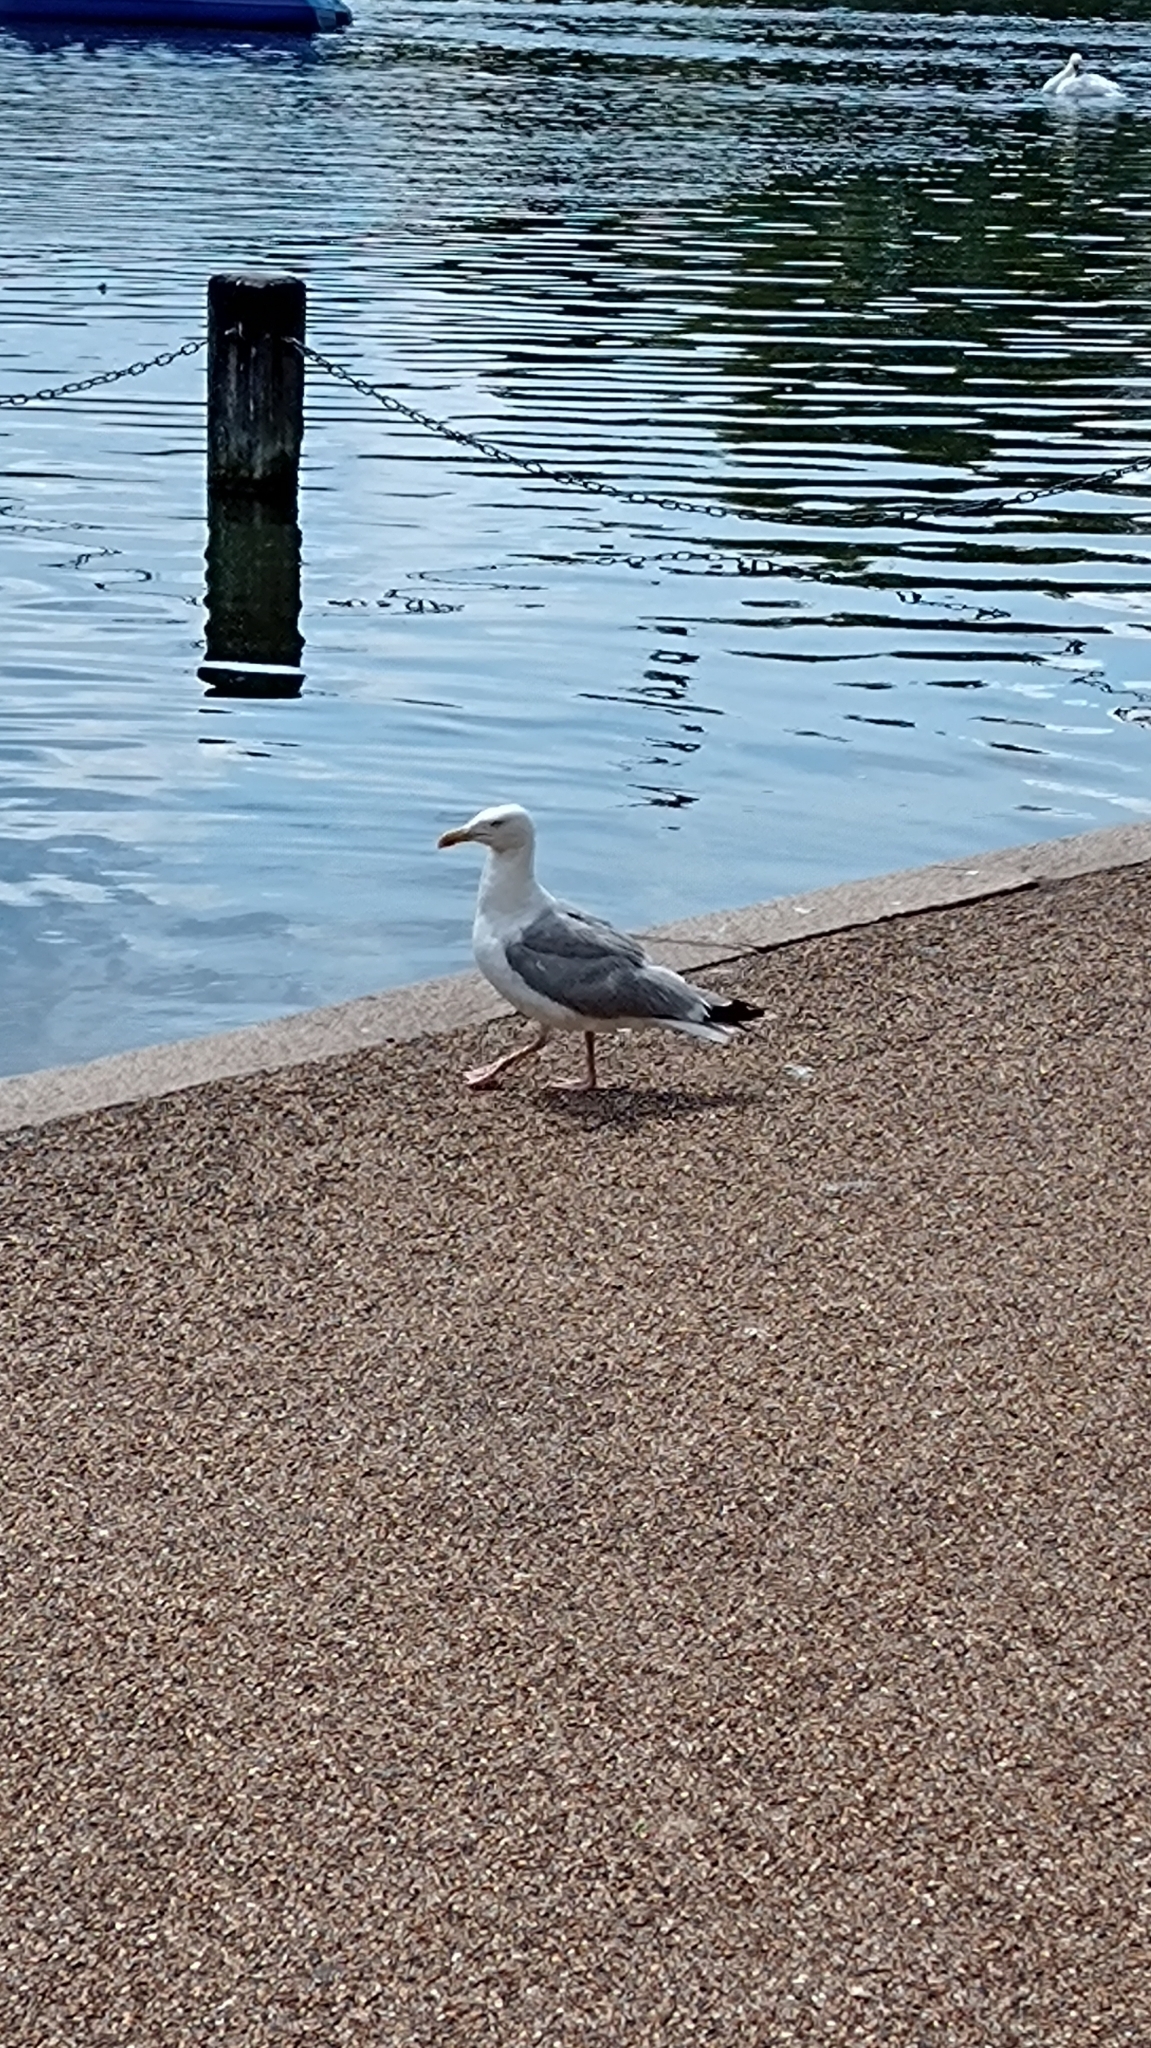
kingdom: Animalia
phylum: Chordata
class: Aves
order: Charadriiformes
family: Laridae
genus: Larus
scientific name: Larus argentatus
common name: Herring gull
